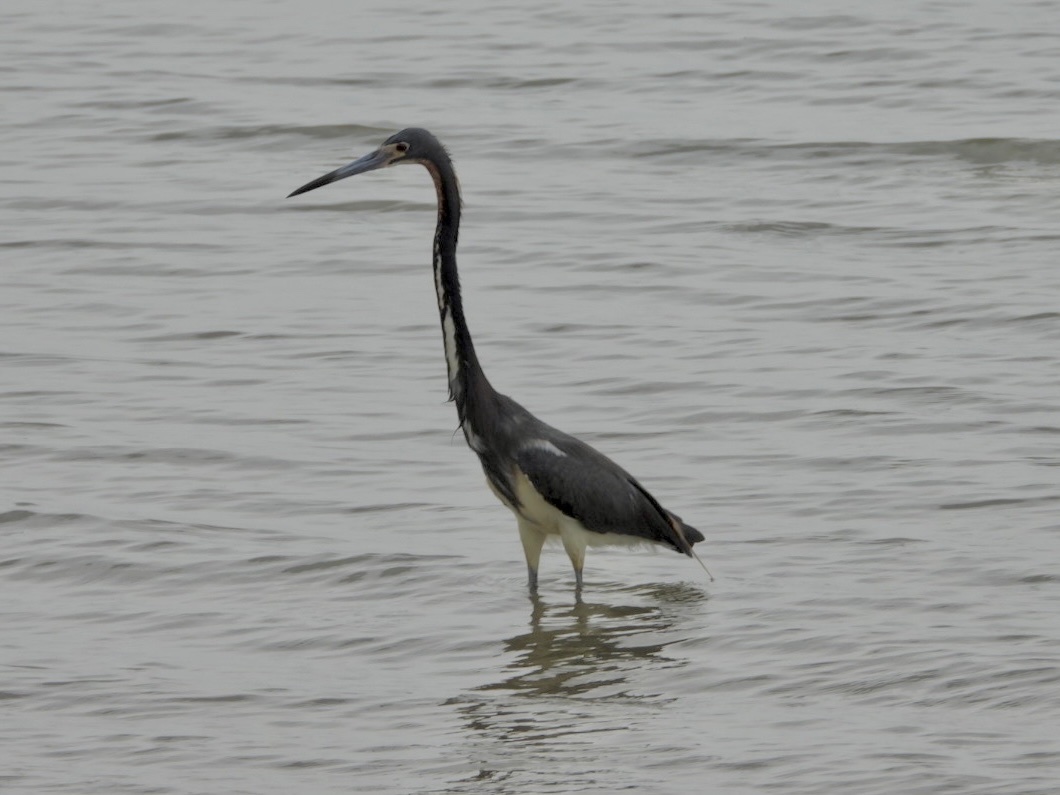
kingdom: Animalia
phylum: Chordata
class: Aves
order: Pelecaniformes
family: Ardeidae
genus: Egretta
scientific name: Egretta tricolor
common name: Tricolored heron
